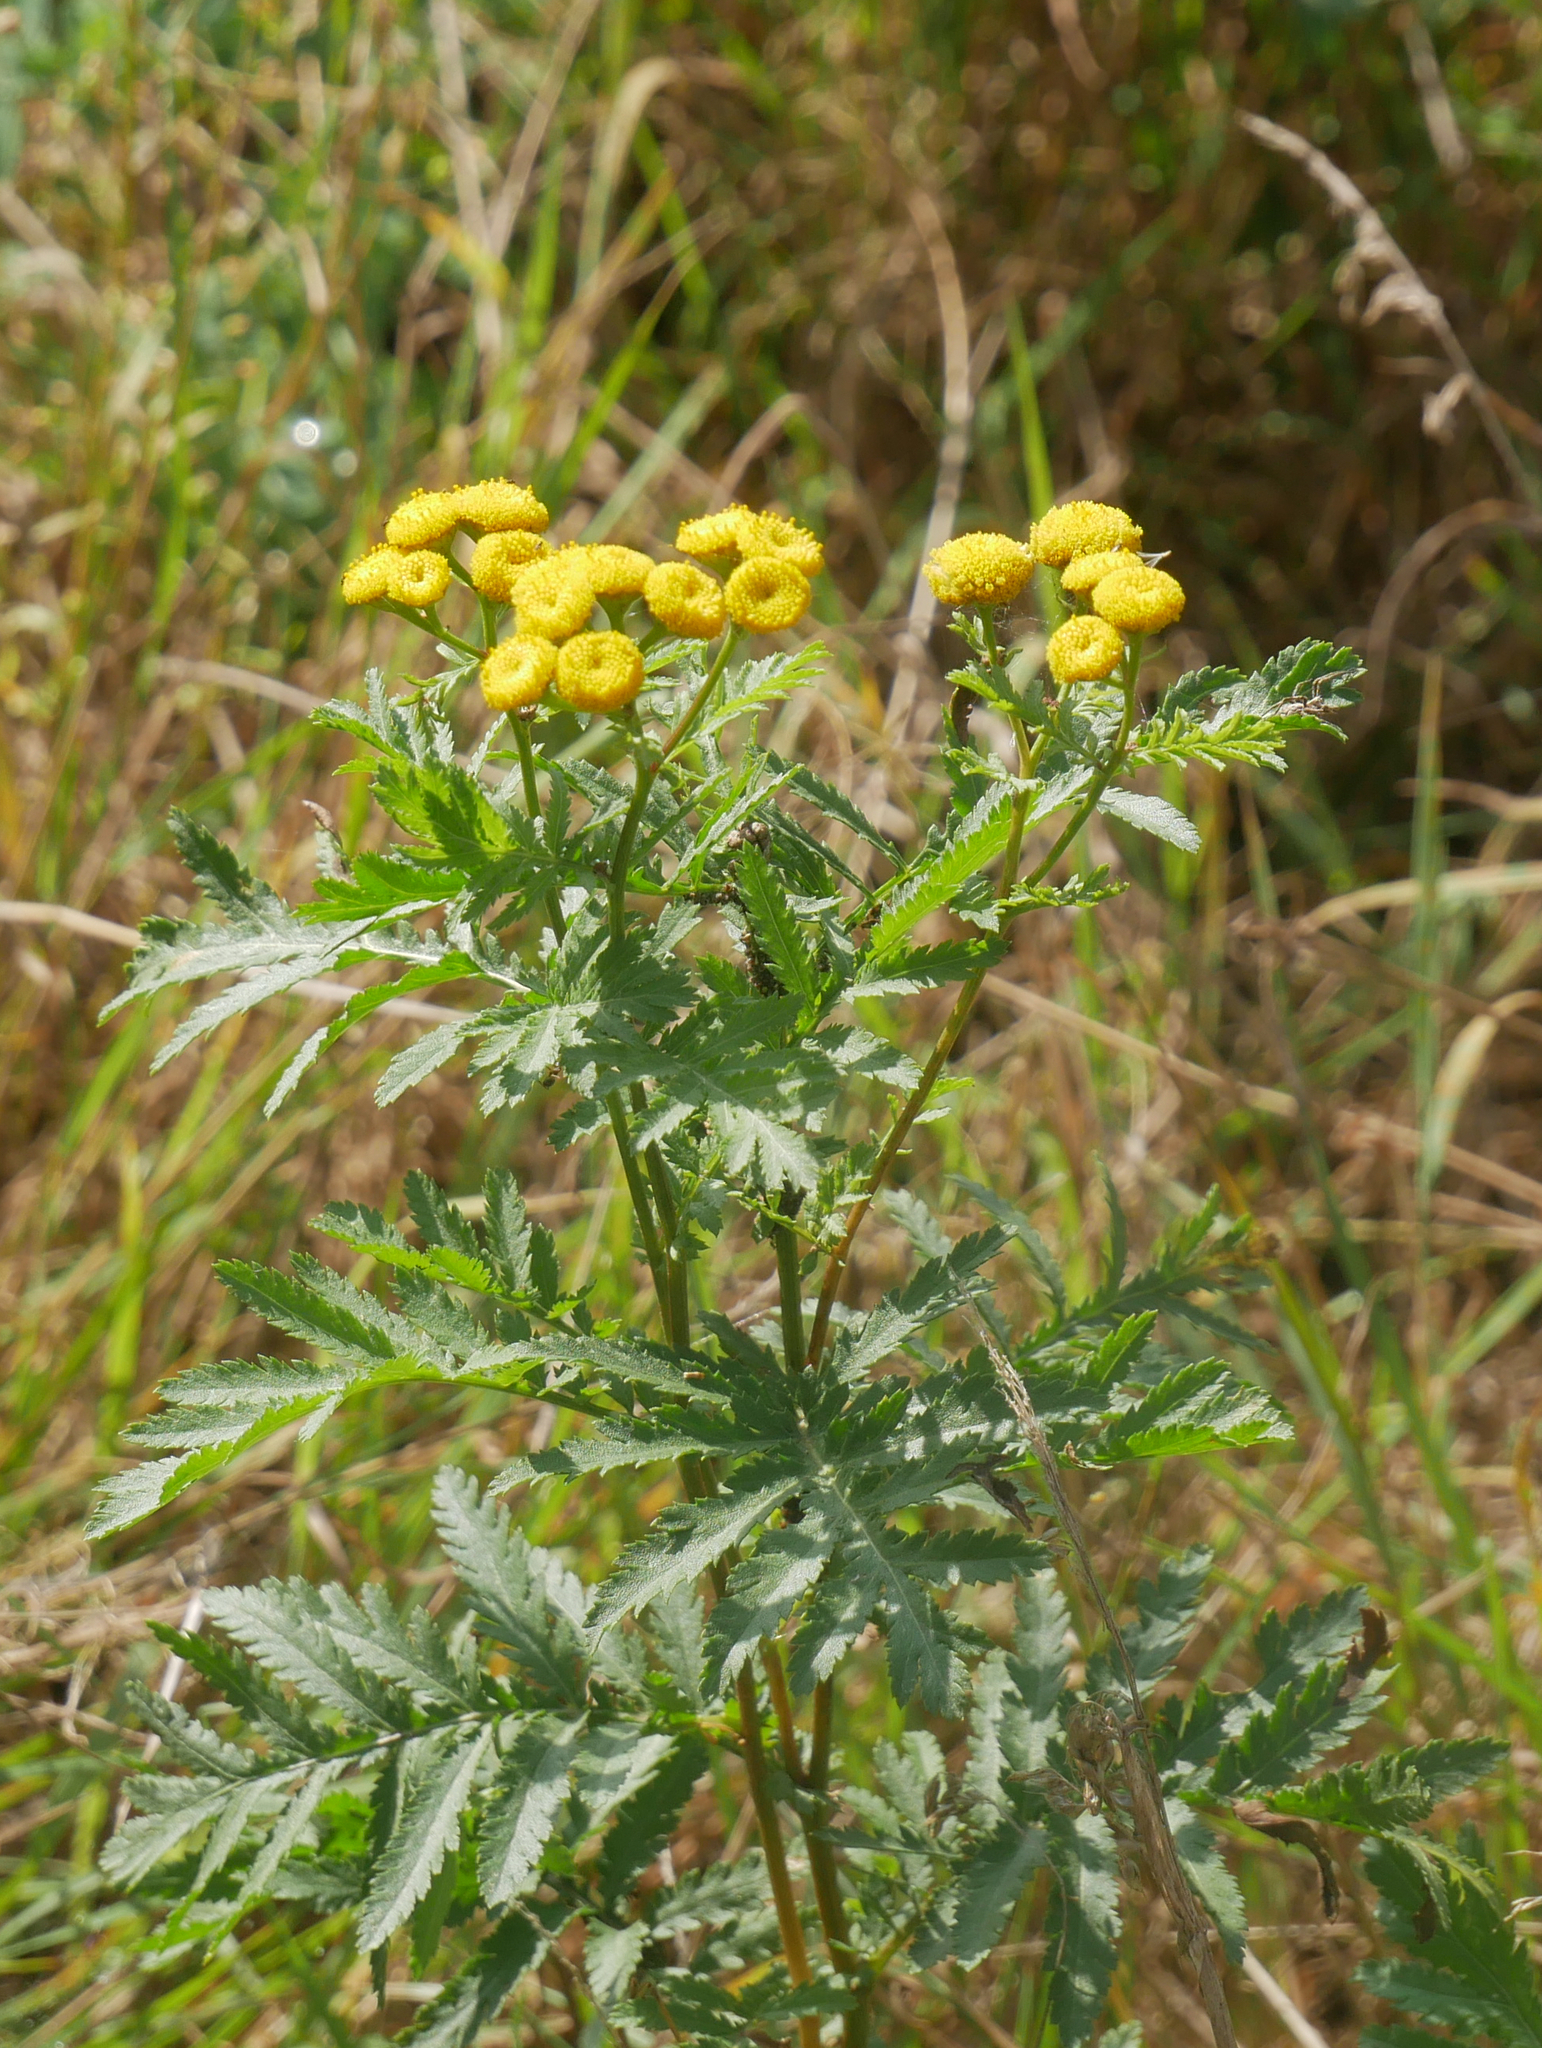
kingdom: Plantae
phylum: Tracheophyta
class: Magnoliopsida
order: Asterales
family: Asteraceae
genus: Tanacetum
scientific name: Tanacetum vulgare
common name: Common tansy
